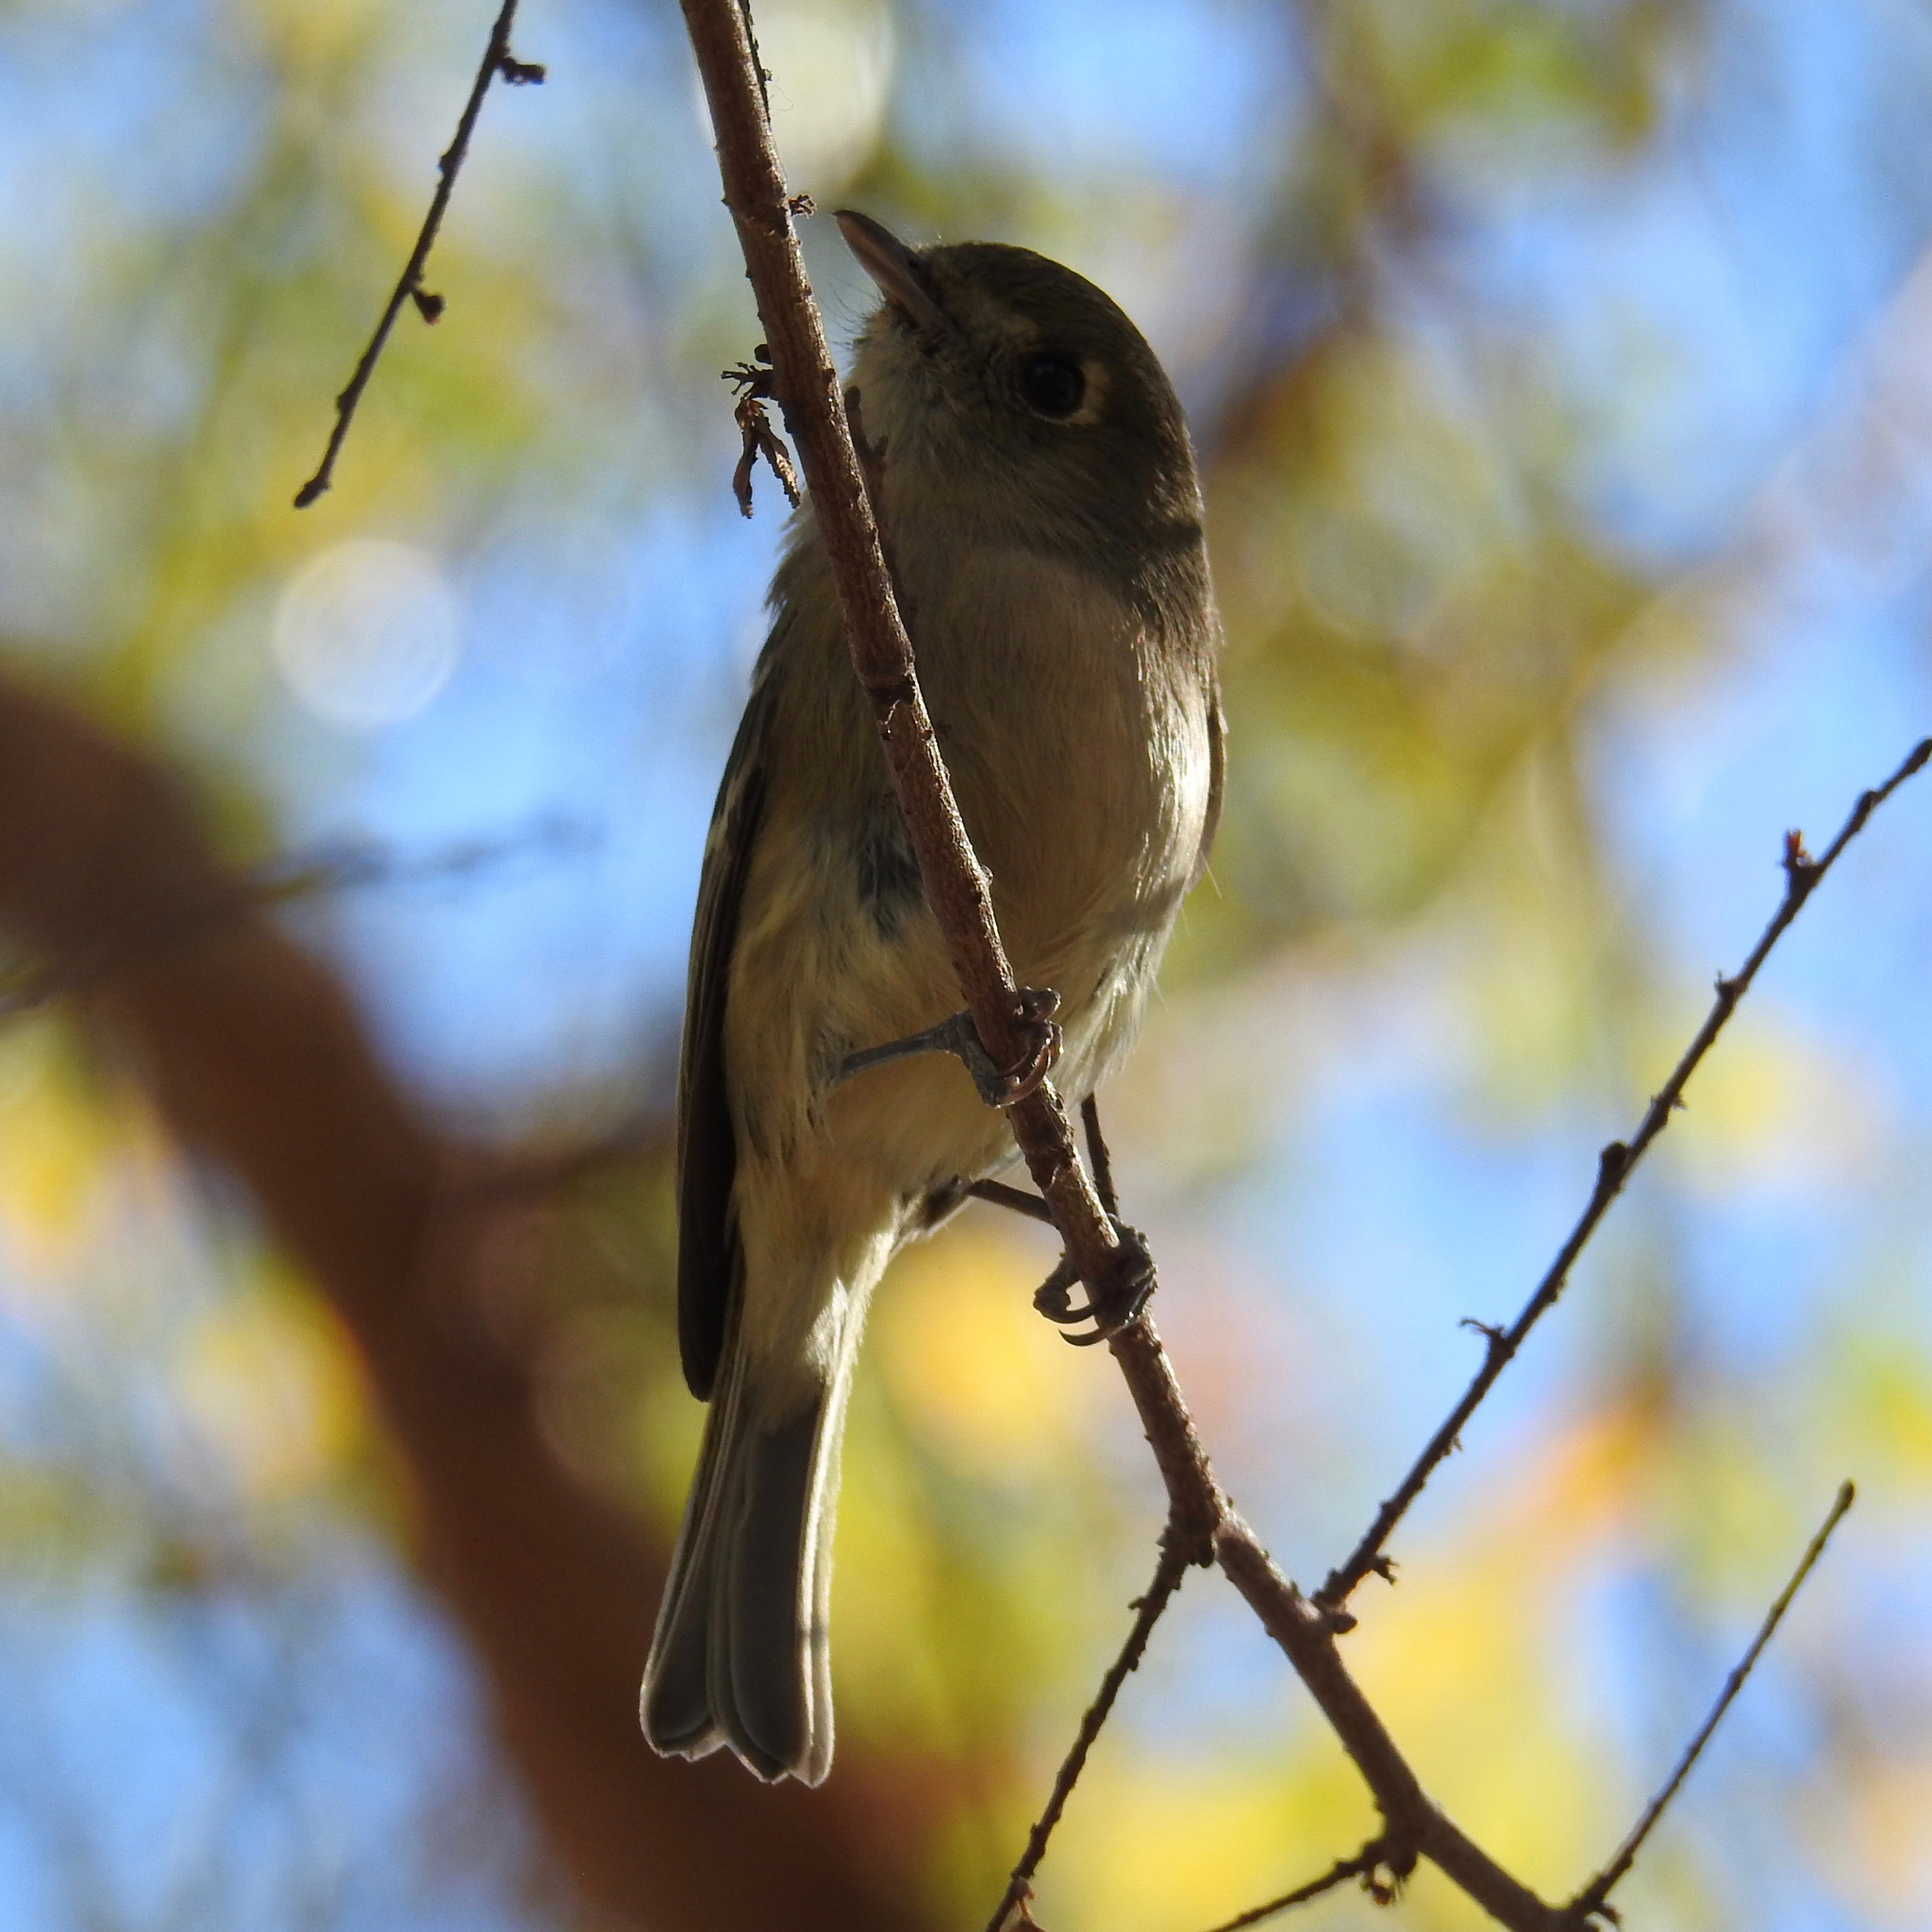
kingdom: Animalia
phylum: Chordata
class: Aves
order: Passeriformes
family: Vireonidae
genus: Vireo
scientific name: Vireo huttoni
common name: Hutton's vireo
